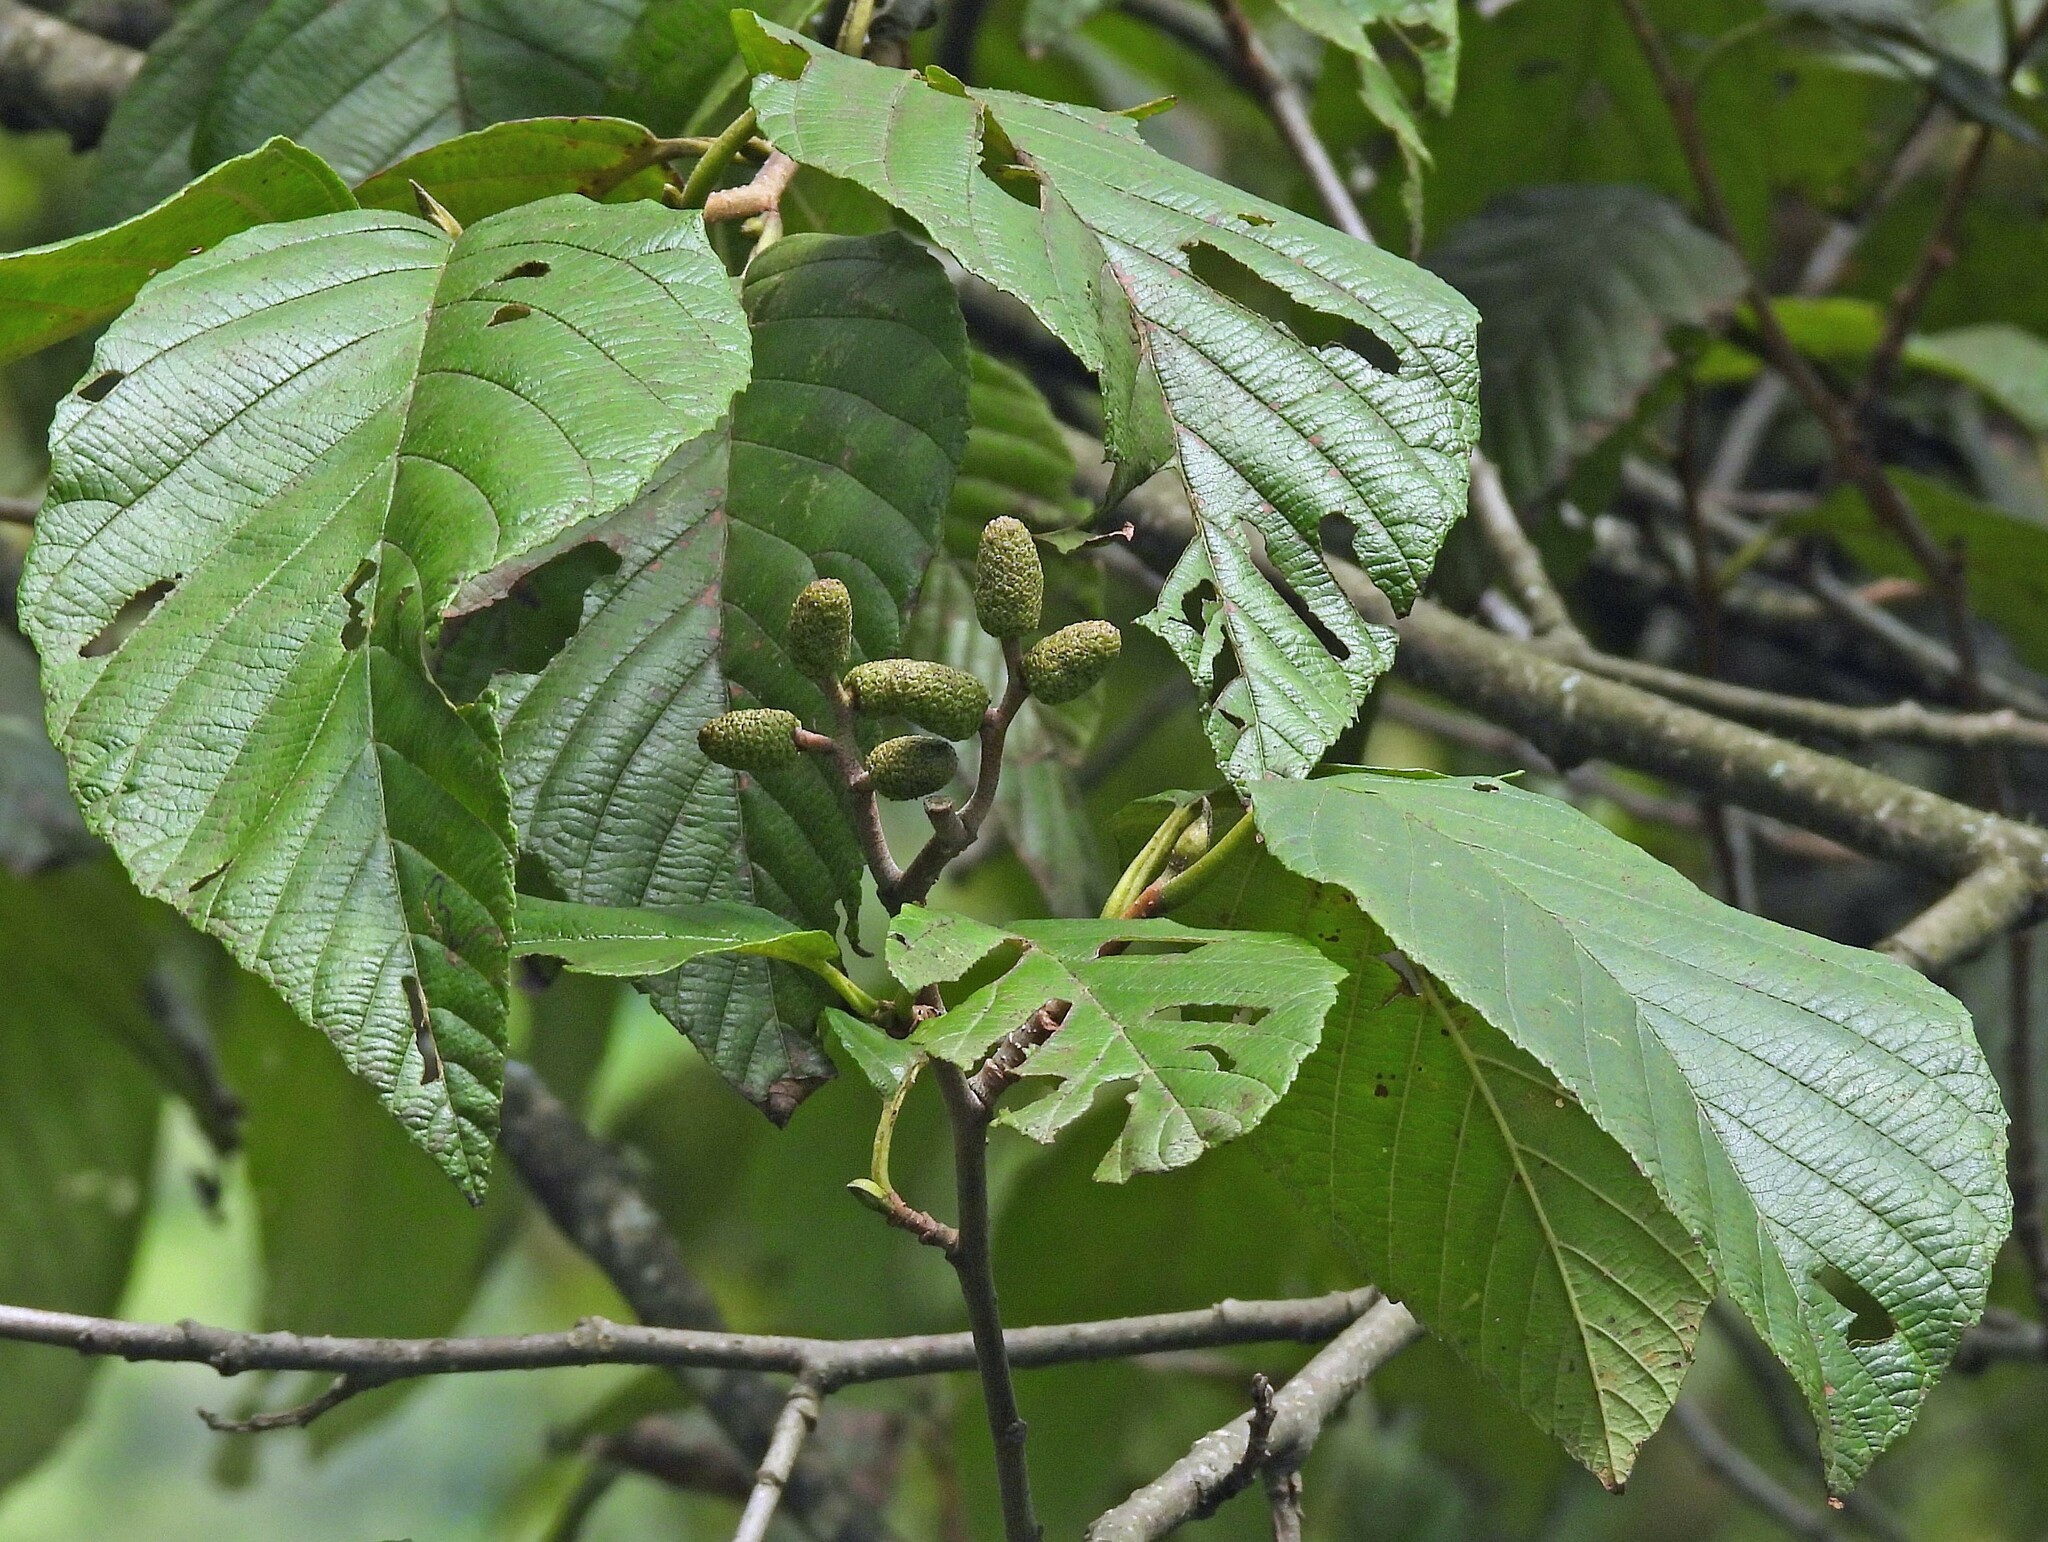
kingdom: Plantae
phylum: Tracheophyta
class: Magnoliopsida
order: Fagales
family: Betulaceae
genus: Alnus
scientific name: Alnus acuminata
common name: Alder
